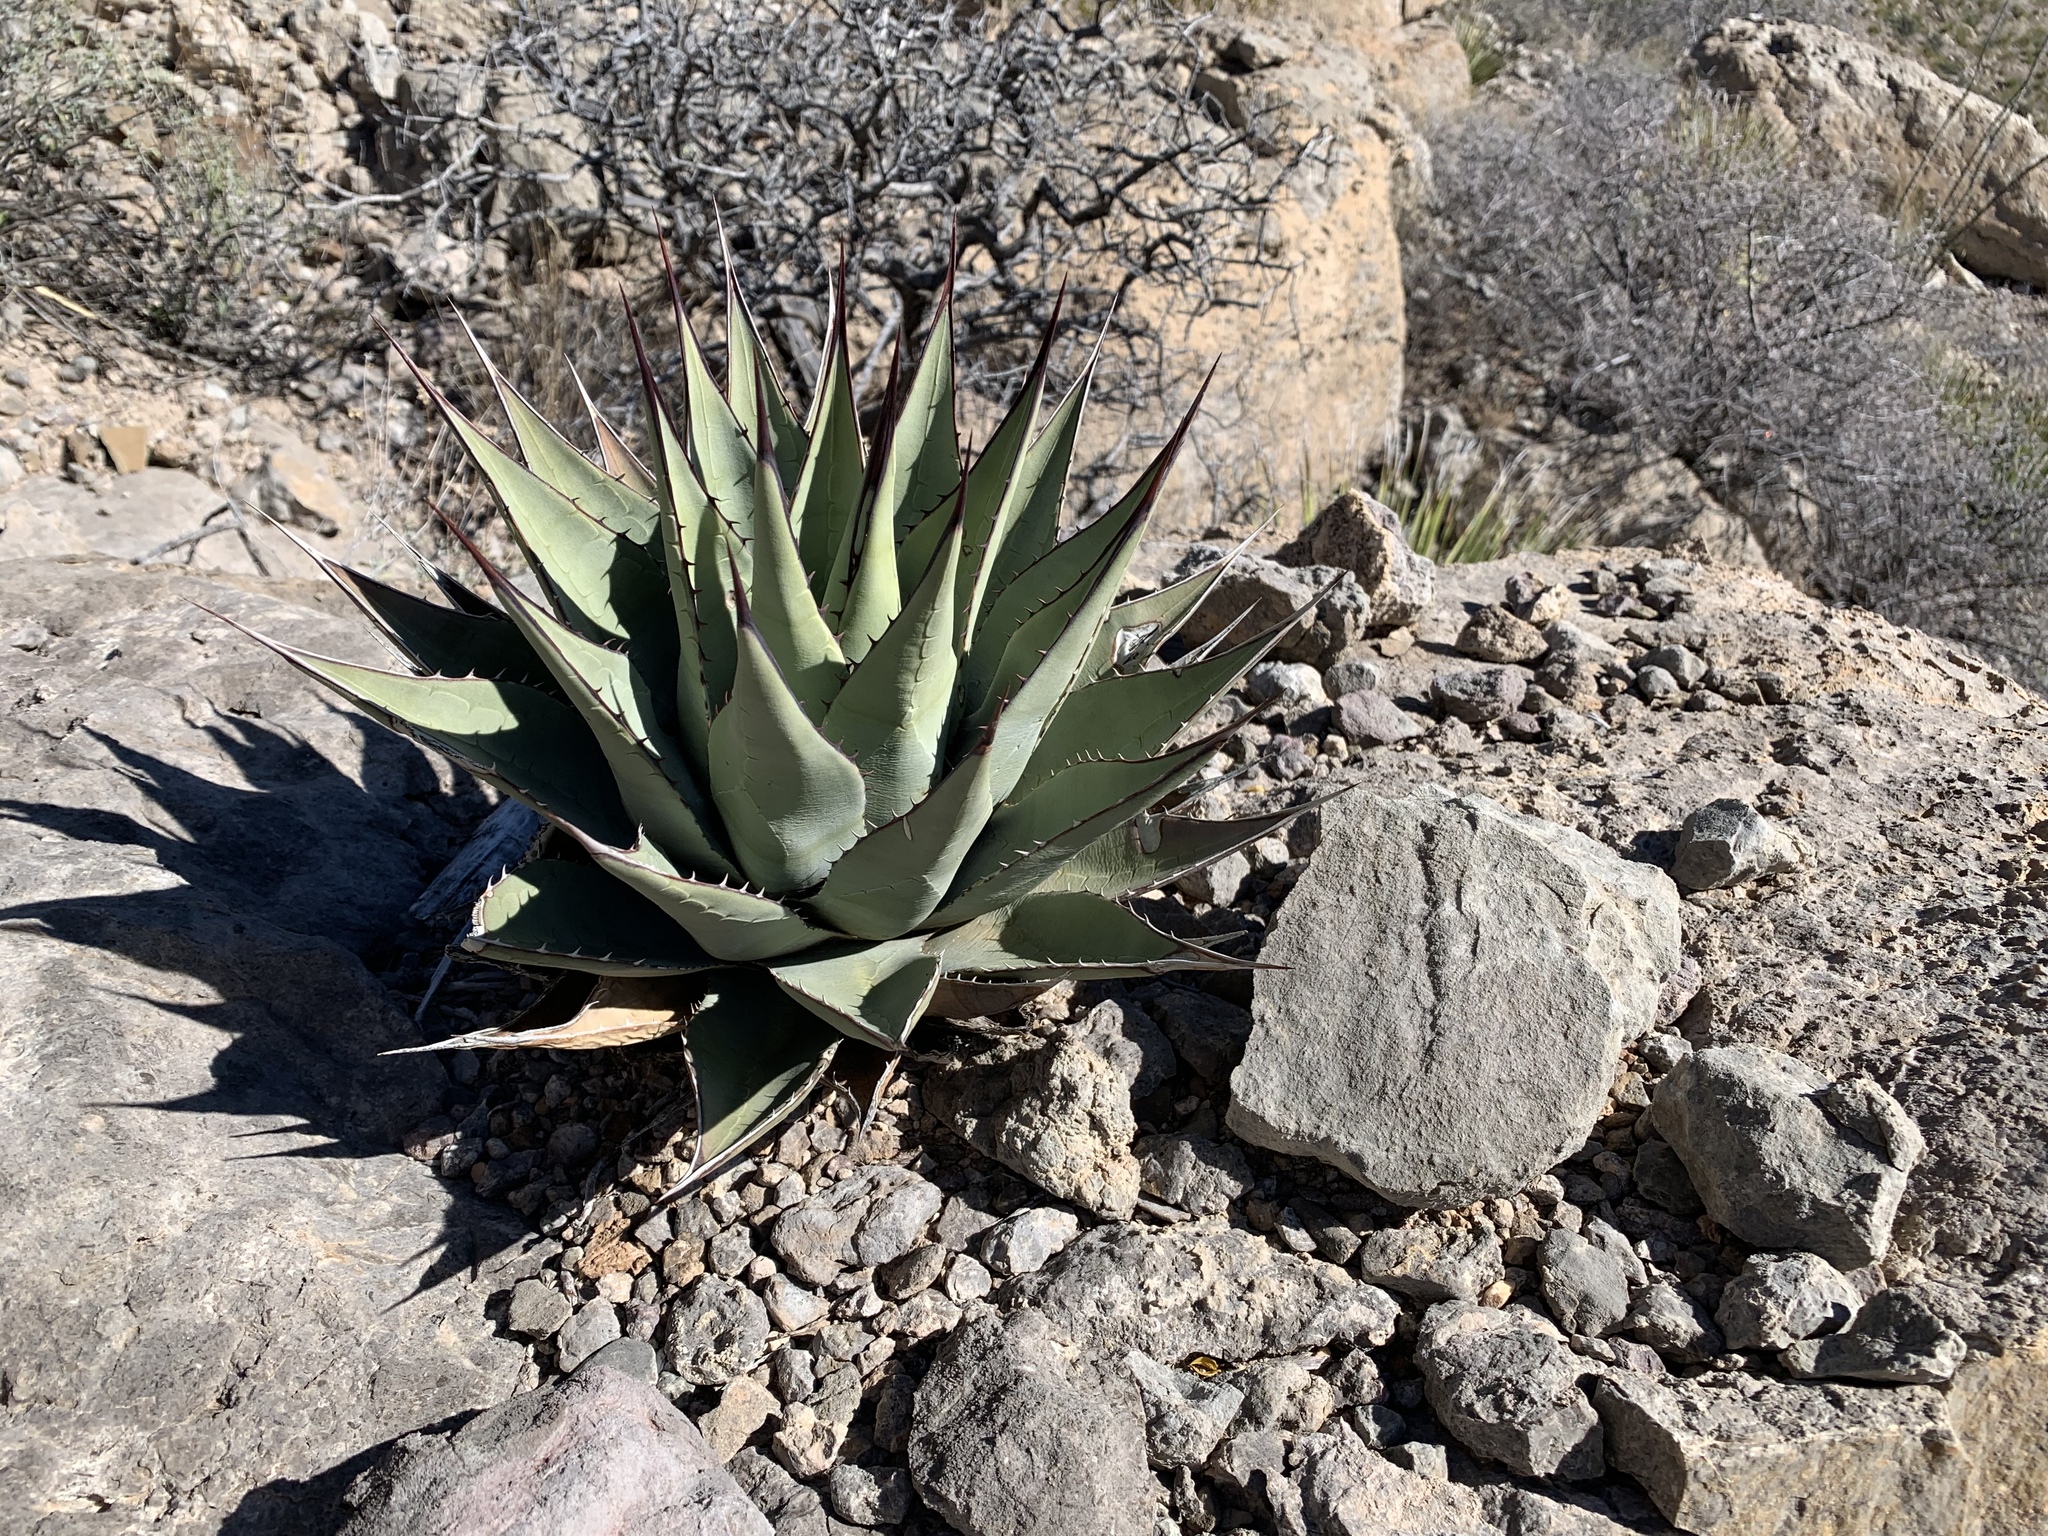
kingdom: Plantae
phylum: Tracheophyta
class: Liliopsida
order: Asparagales
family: Asparagaceae
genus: Agave
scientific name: Agave parryi
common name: Parry's agave
